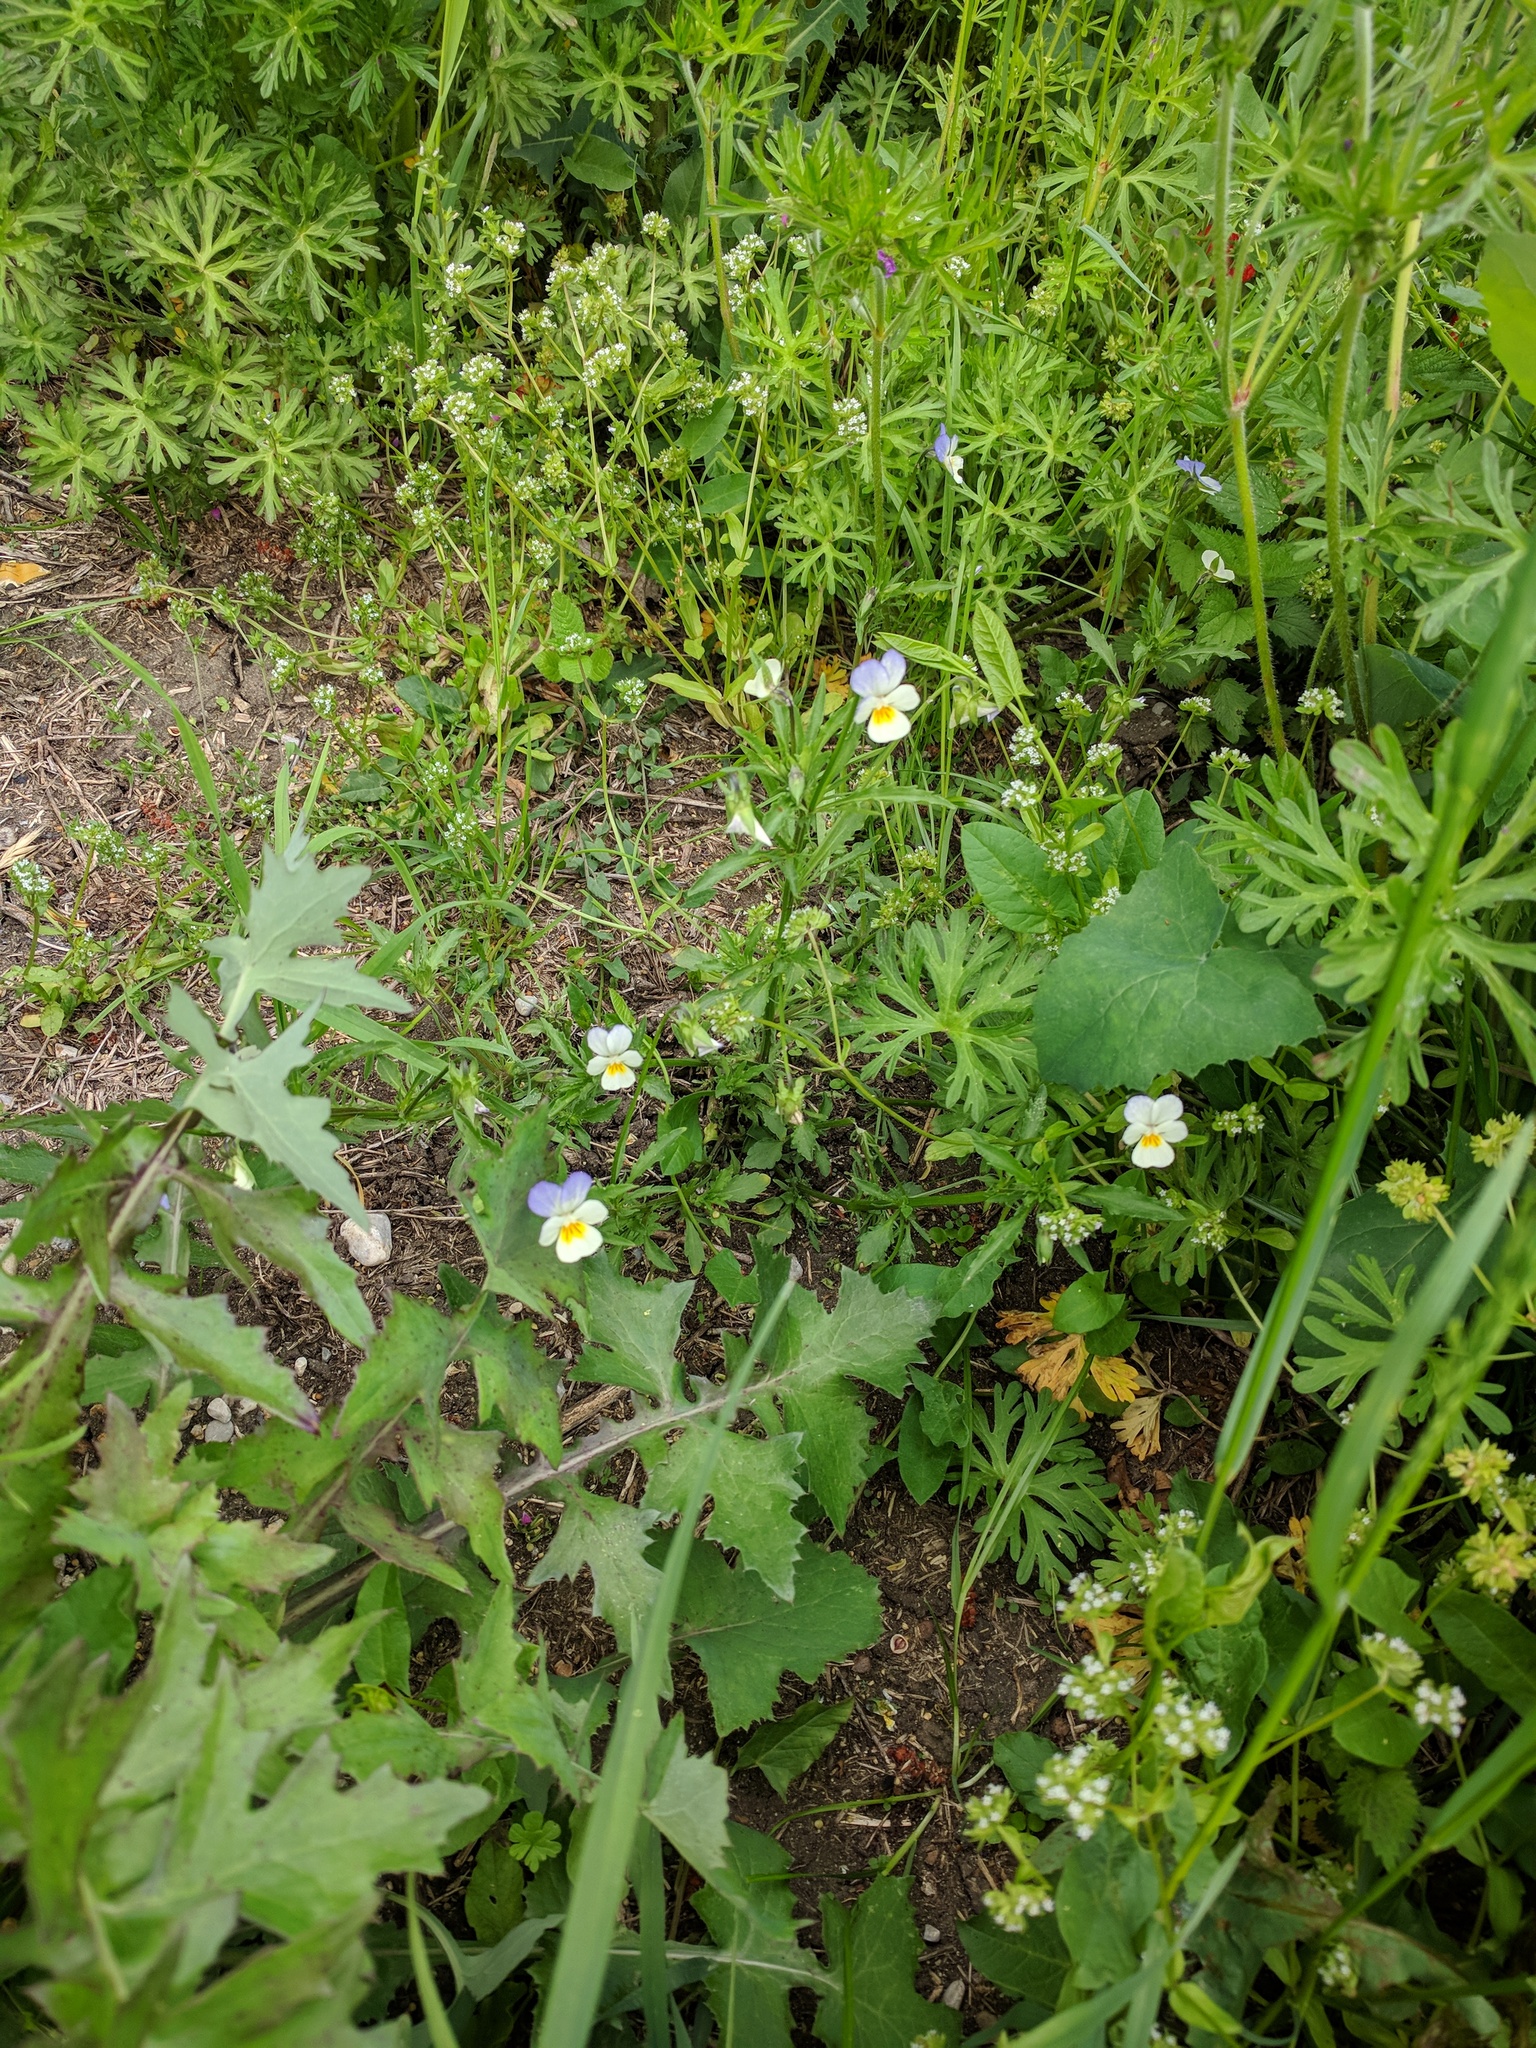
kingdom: Plantae
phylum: Tracheophyta
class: Magnoliopsida
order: Malpighiales
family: Violaceae
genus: Viola
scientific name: Viola tricolor
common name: Pansy
